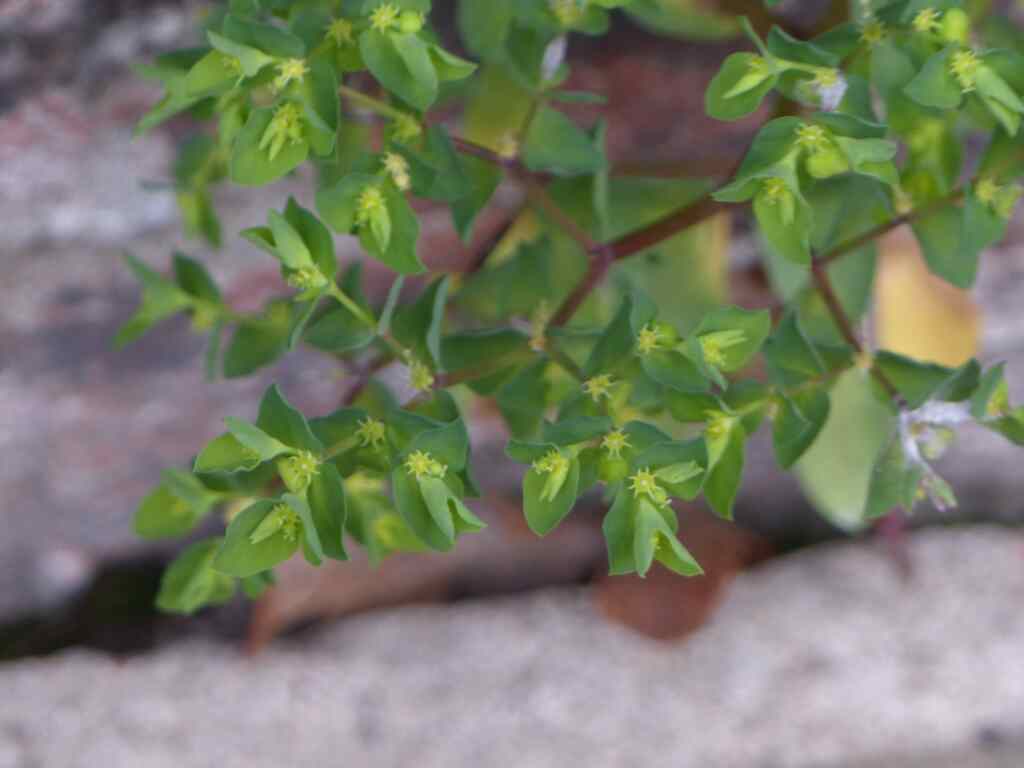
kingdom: Plantae
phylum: Tracheophyta
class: Magnoliopsida
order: Malpighiales
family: Euphorbiaceae
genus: Euphorbia
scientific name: Euphorbia peplus
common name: Petty spurge
